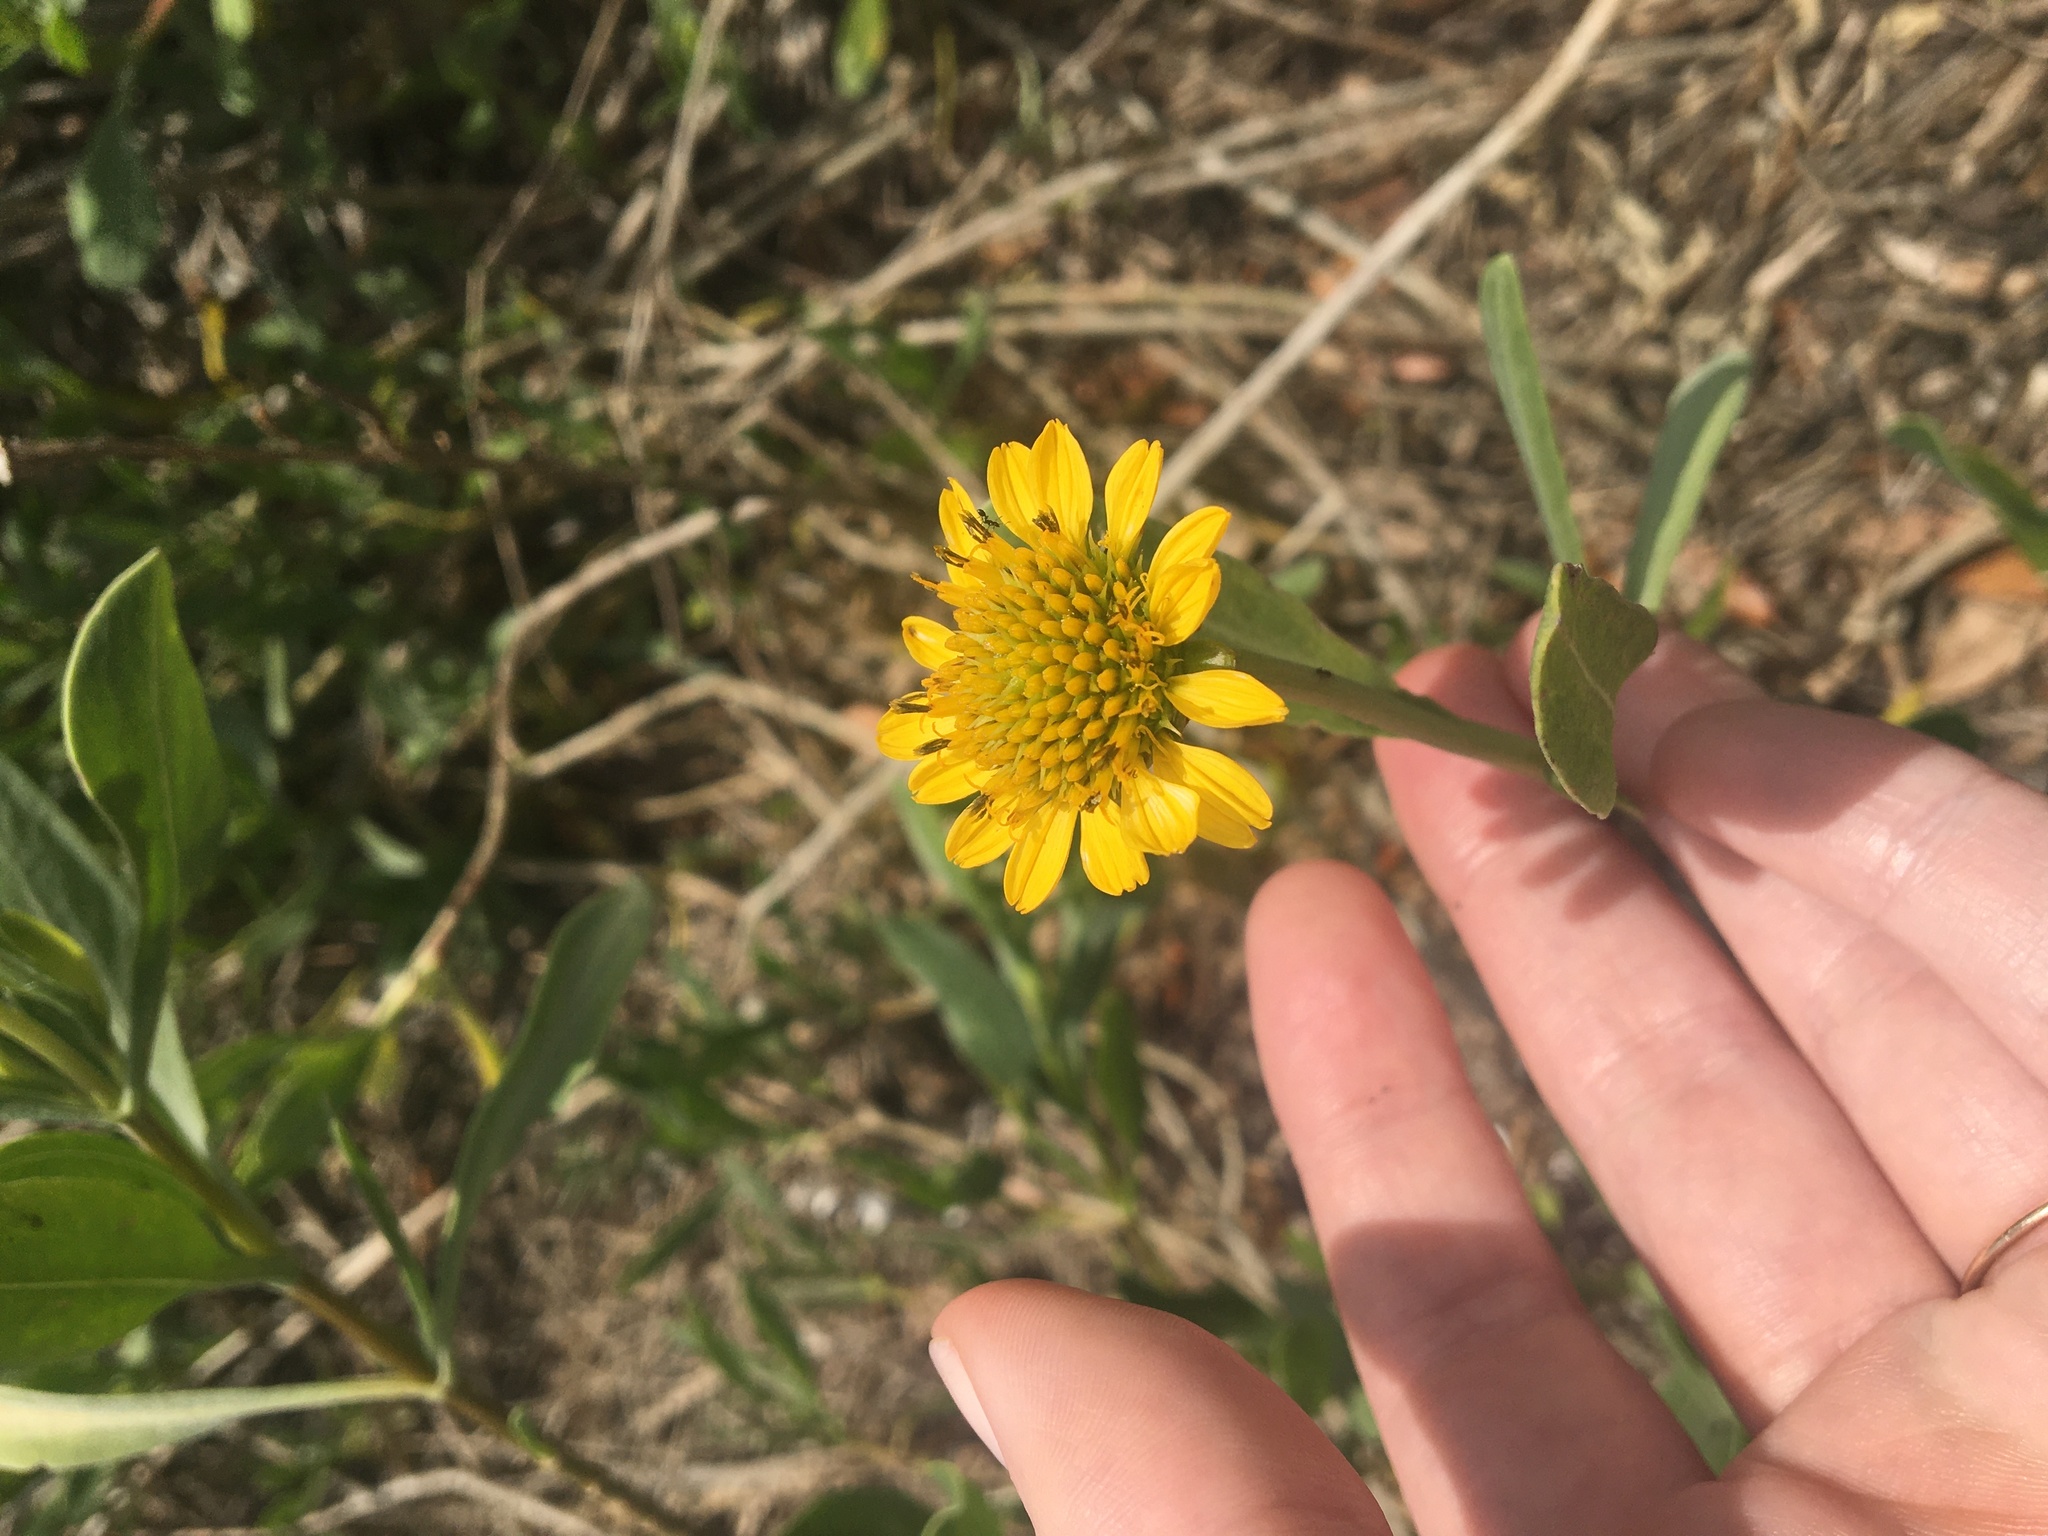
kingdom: Plantae
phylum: Tracheophyta
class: Magnoliopsida
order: Asterales
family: Asteraceae
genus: Borrichia
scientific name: Borrichia frutescens
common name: Sea oxeye
